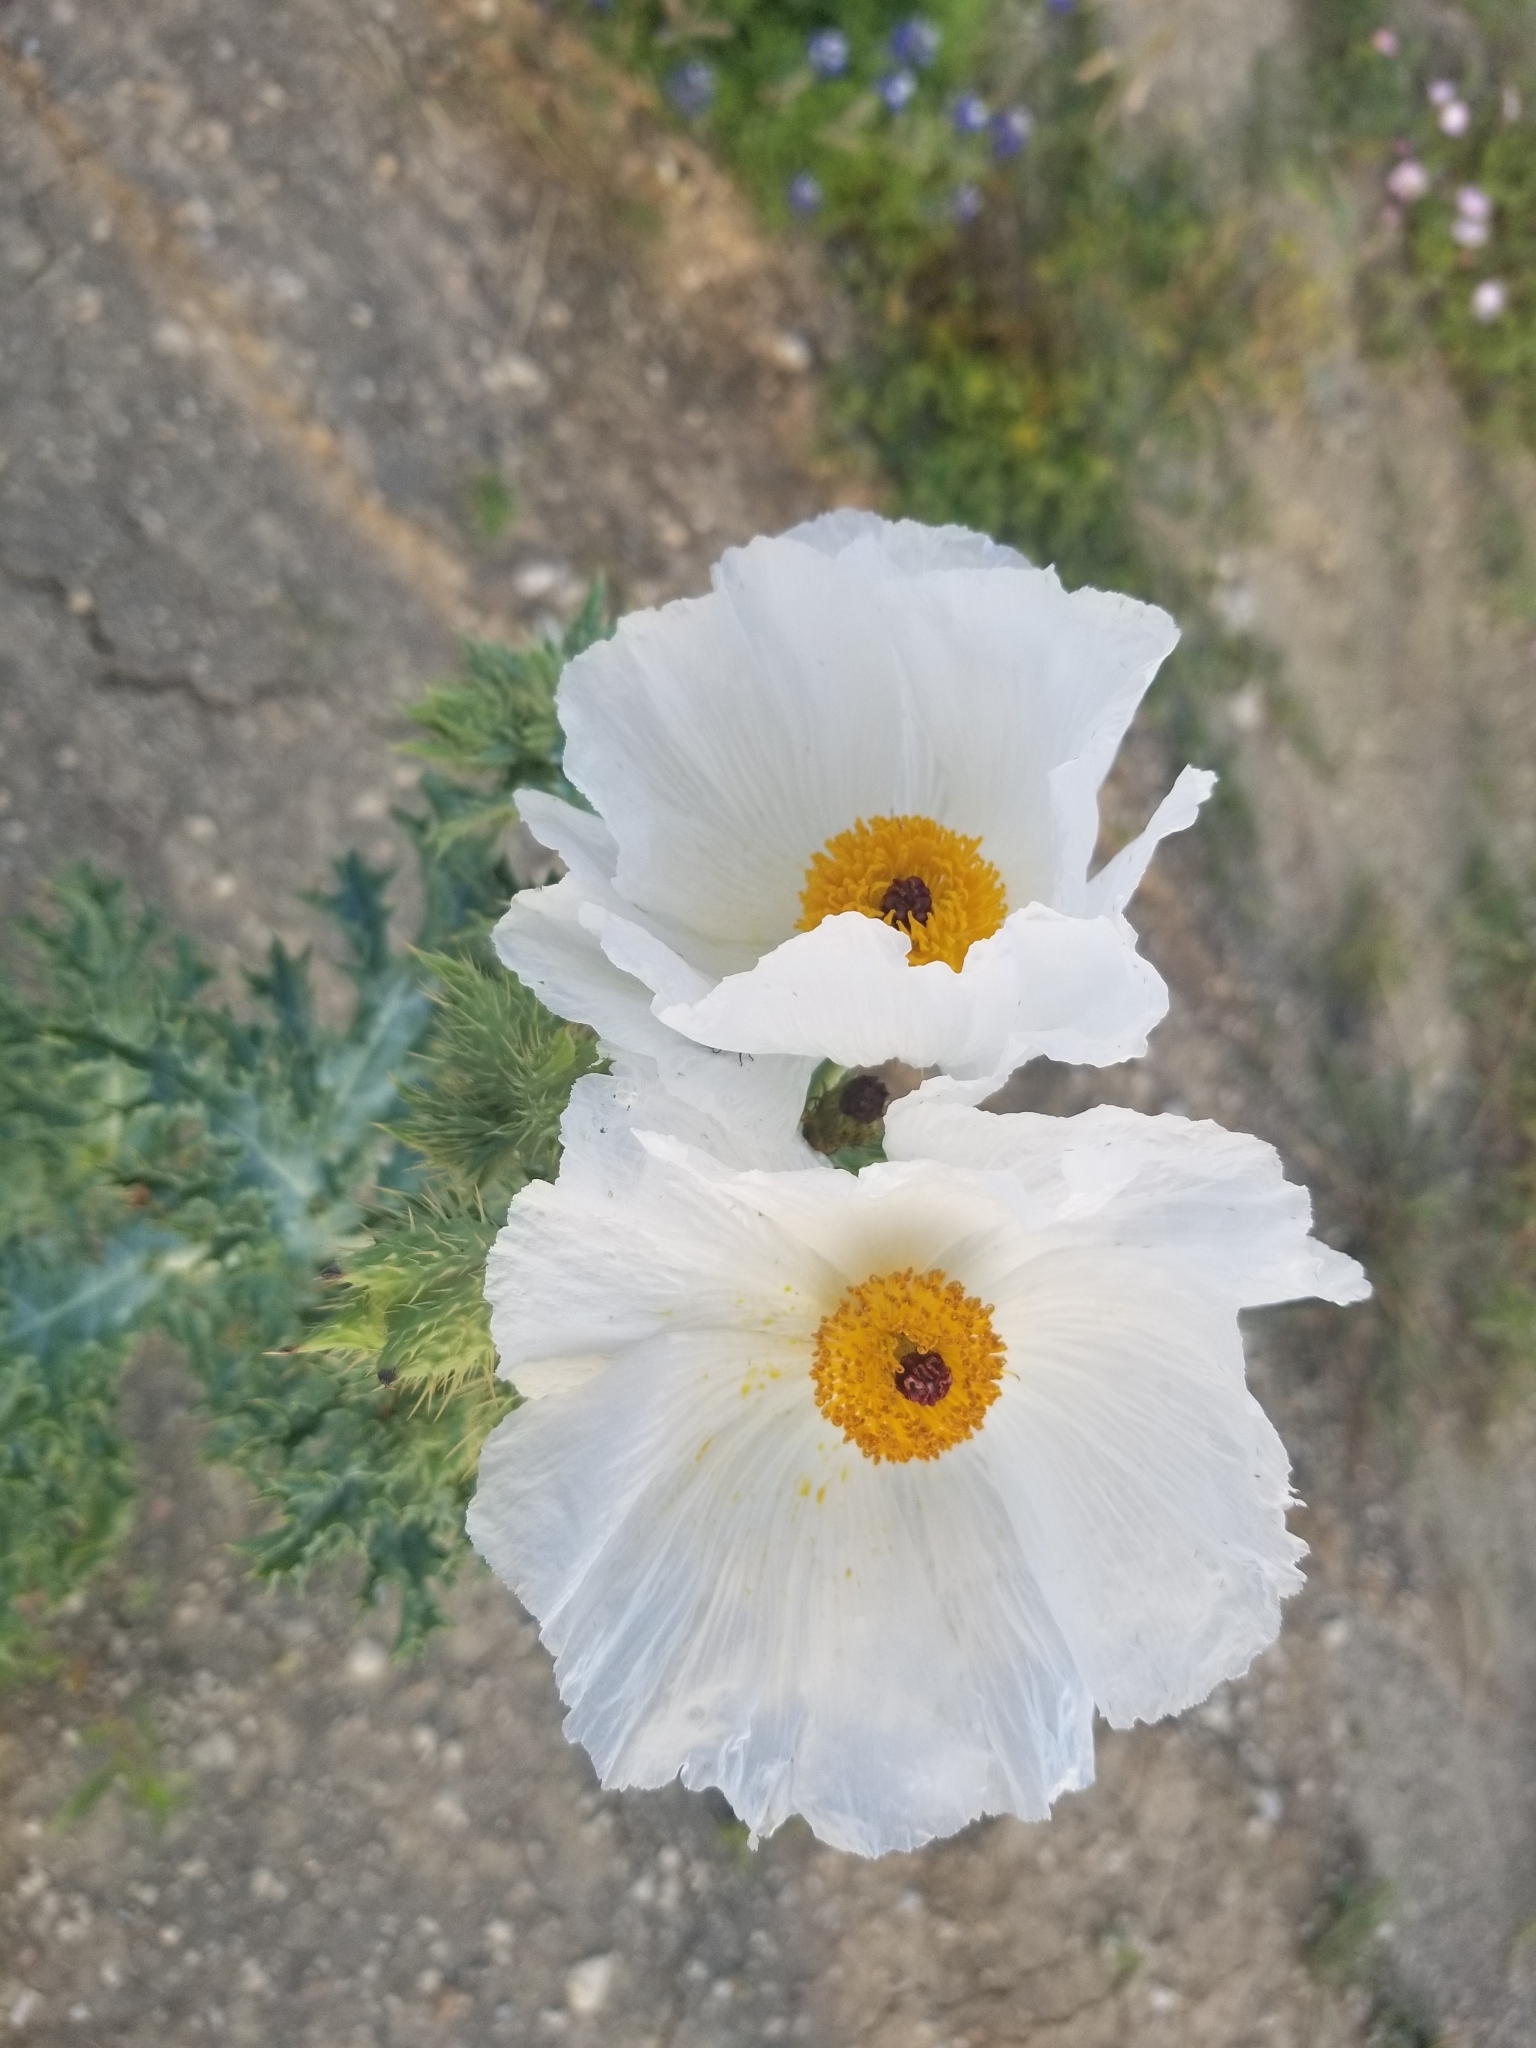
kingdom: Plantae
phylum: Tracheophyta
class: Magnoliopsida
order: Ranunculales
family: Papaveraceae
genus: Argemone
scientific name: Argemone albiflora
